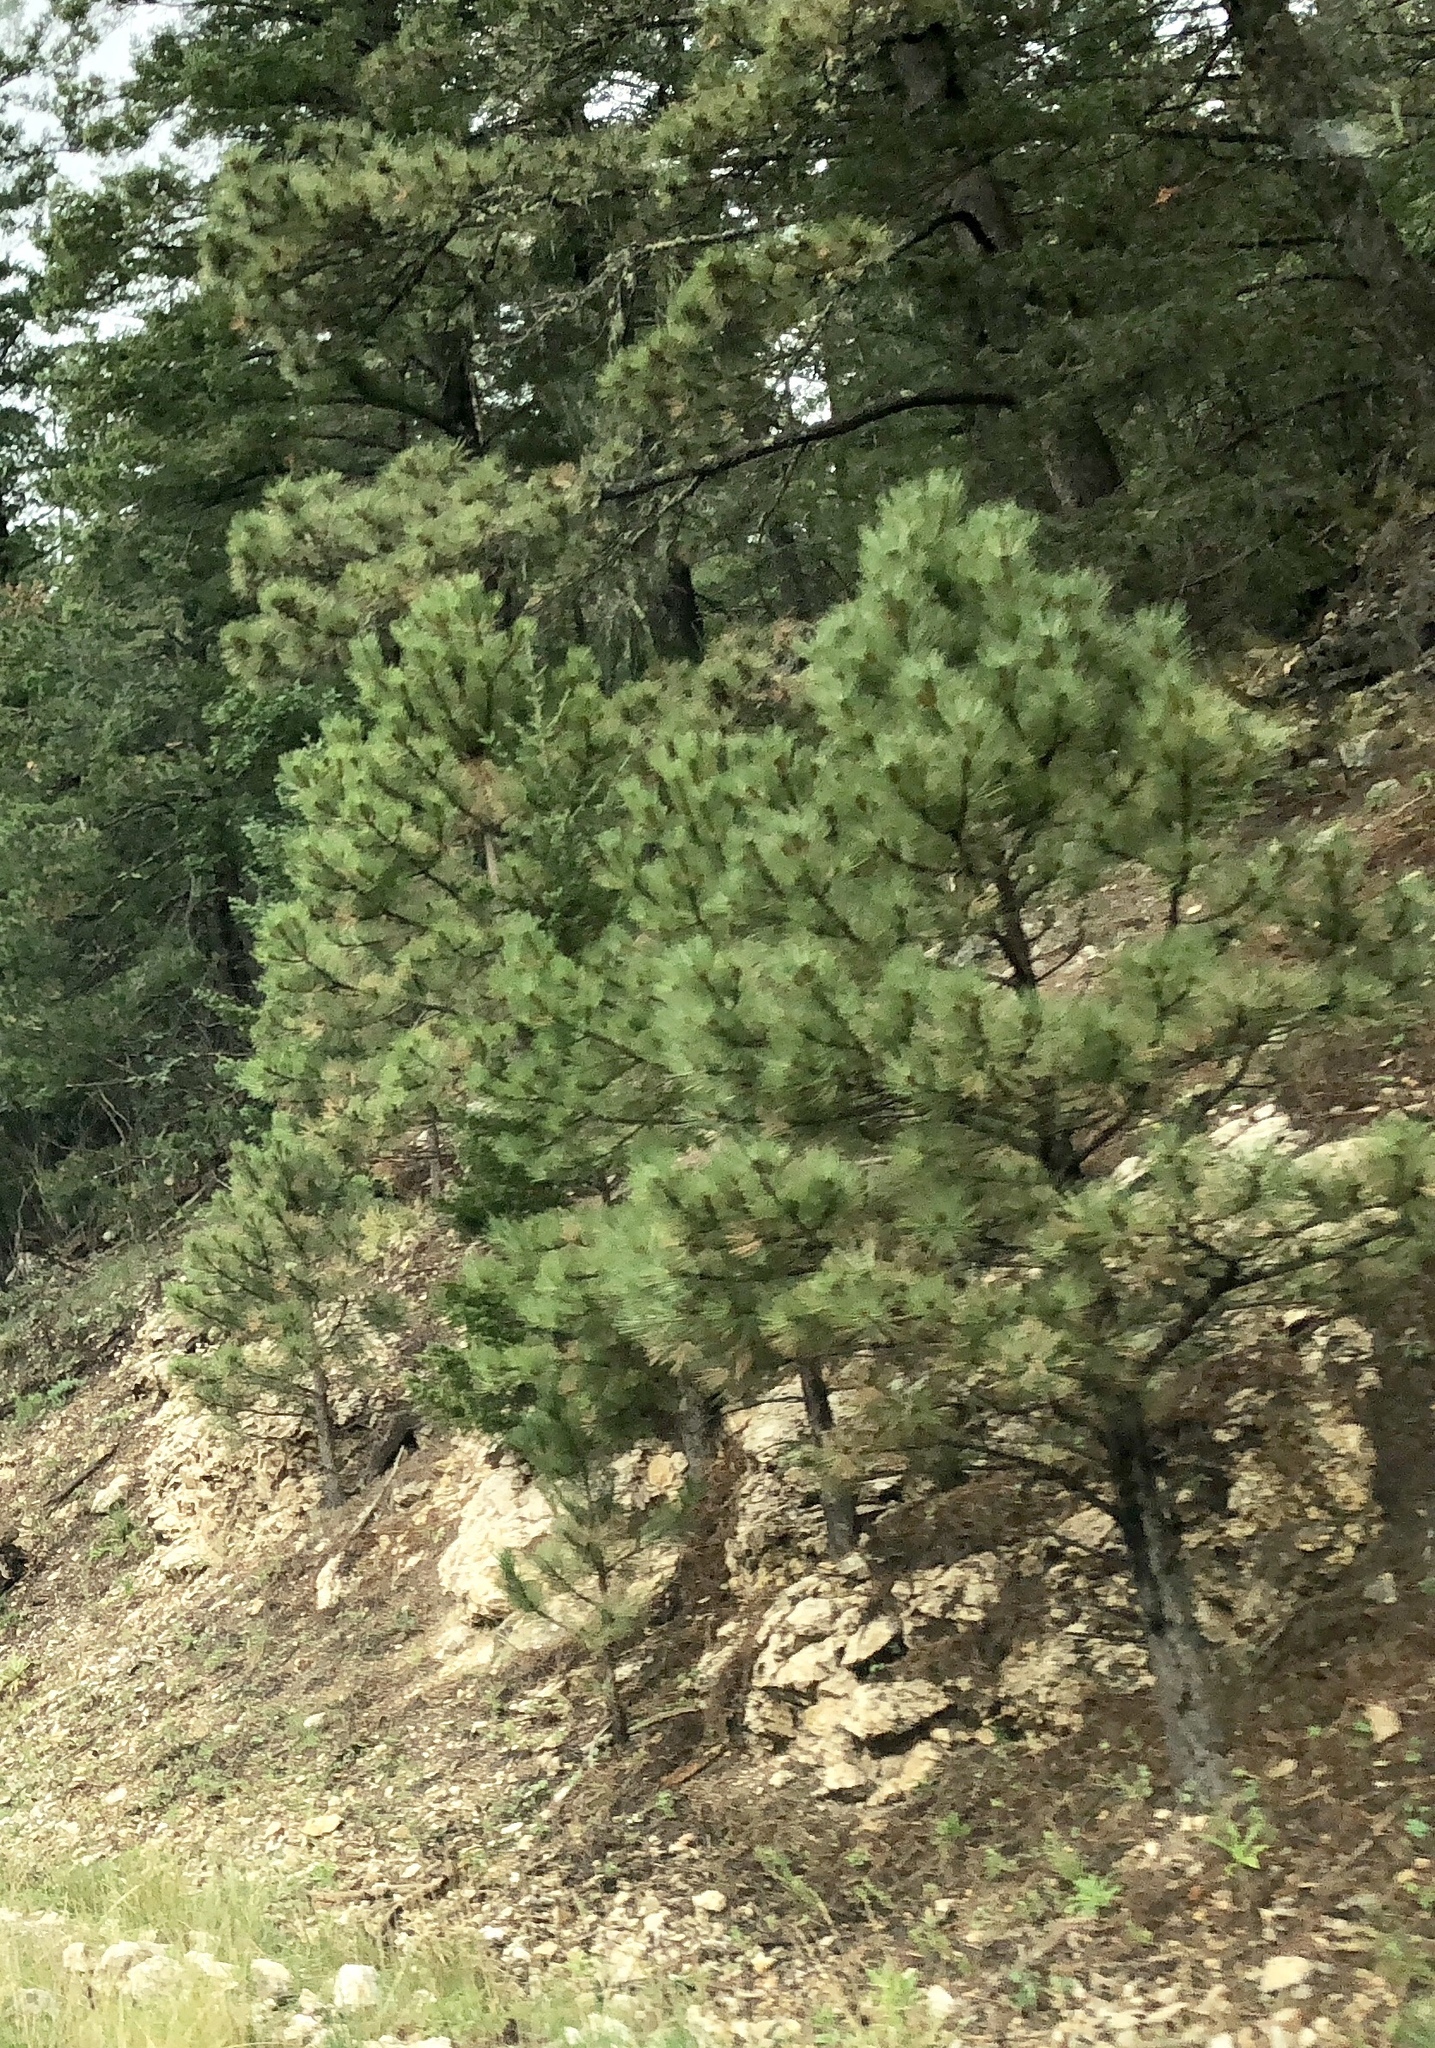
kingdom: Plantae
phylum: Tracheophyta
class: Pinopsida
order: Pinales
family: Pinaceae
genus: Pinus
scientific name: Pinus ponderosa
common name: Western yellow-pine
